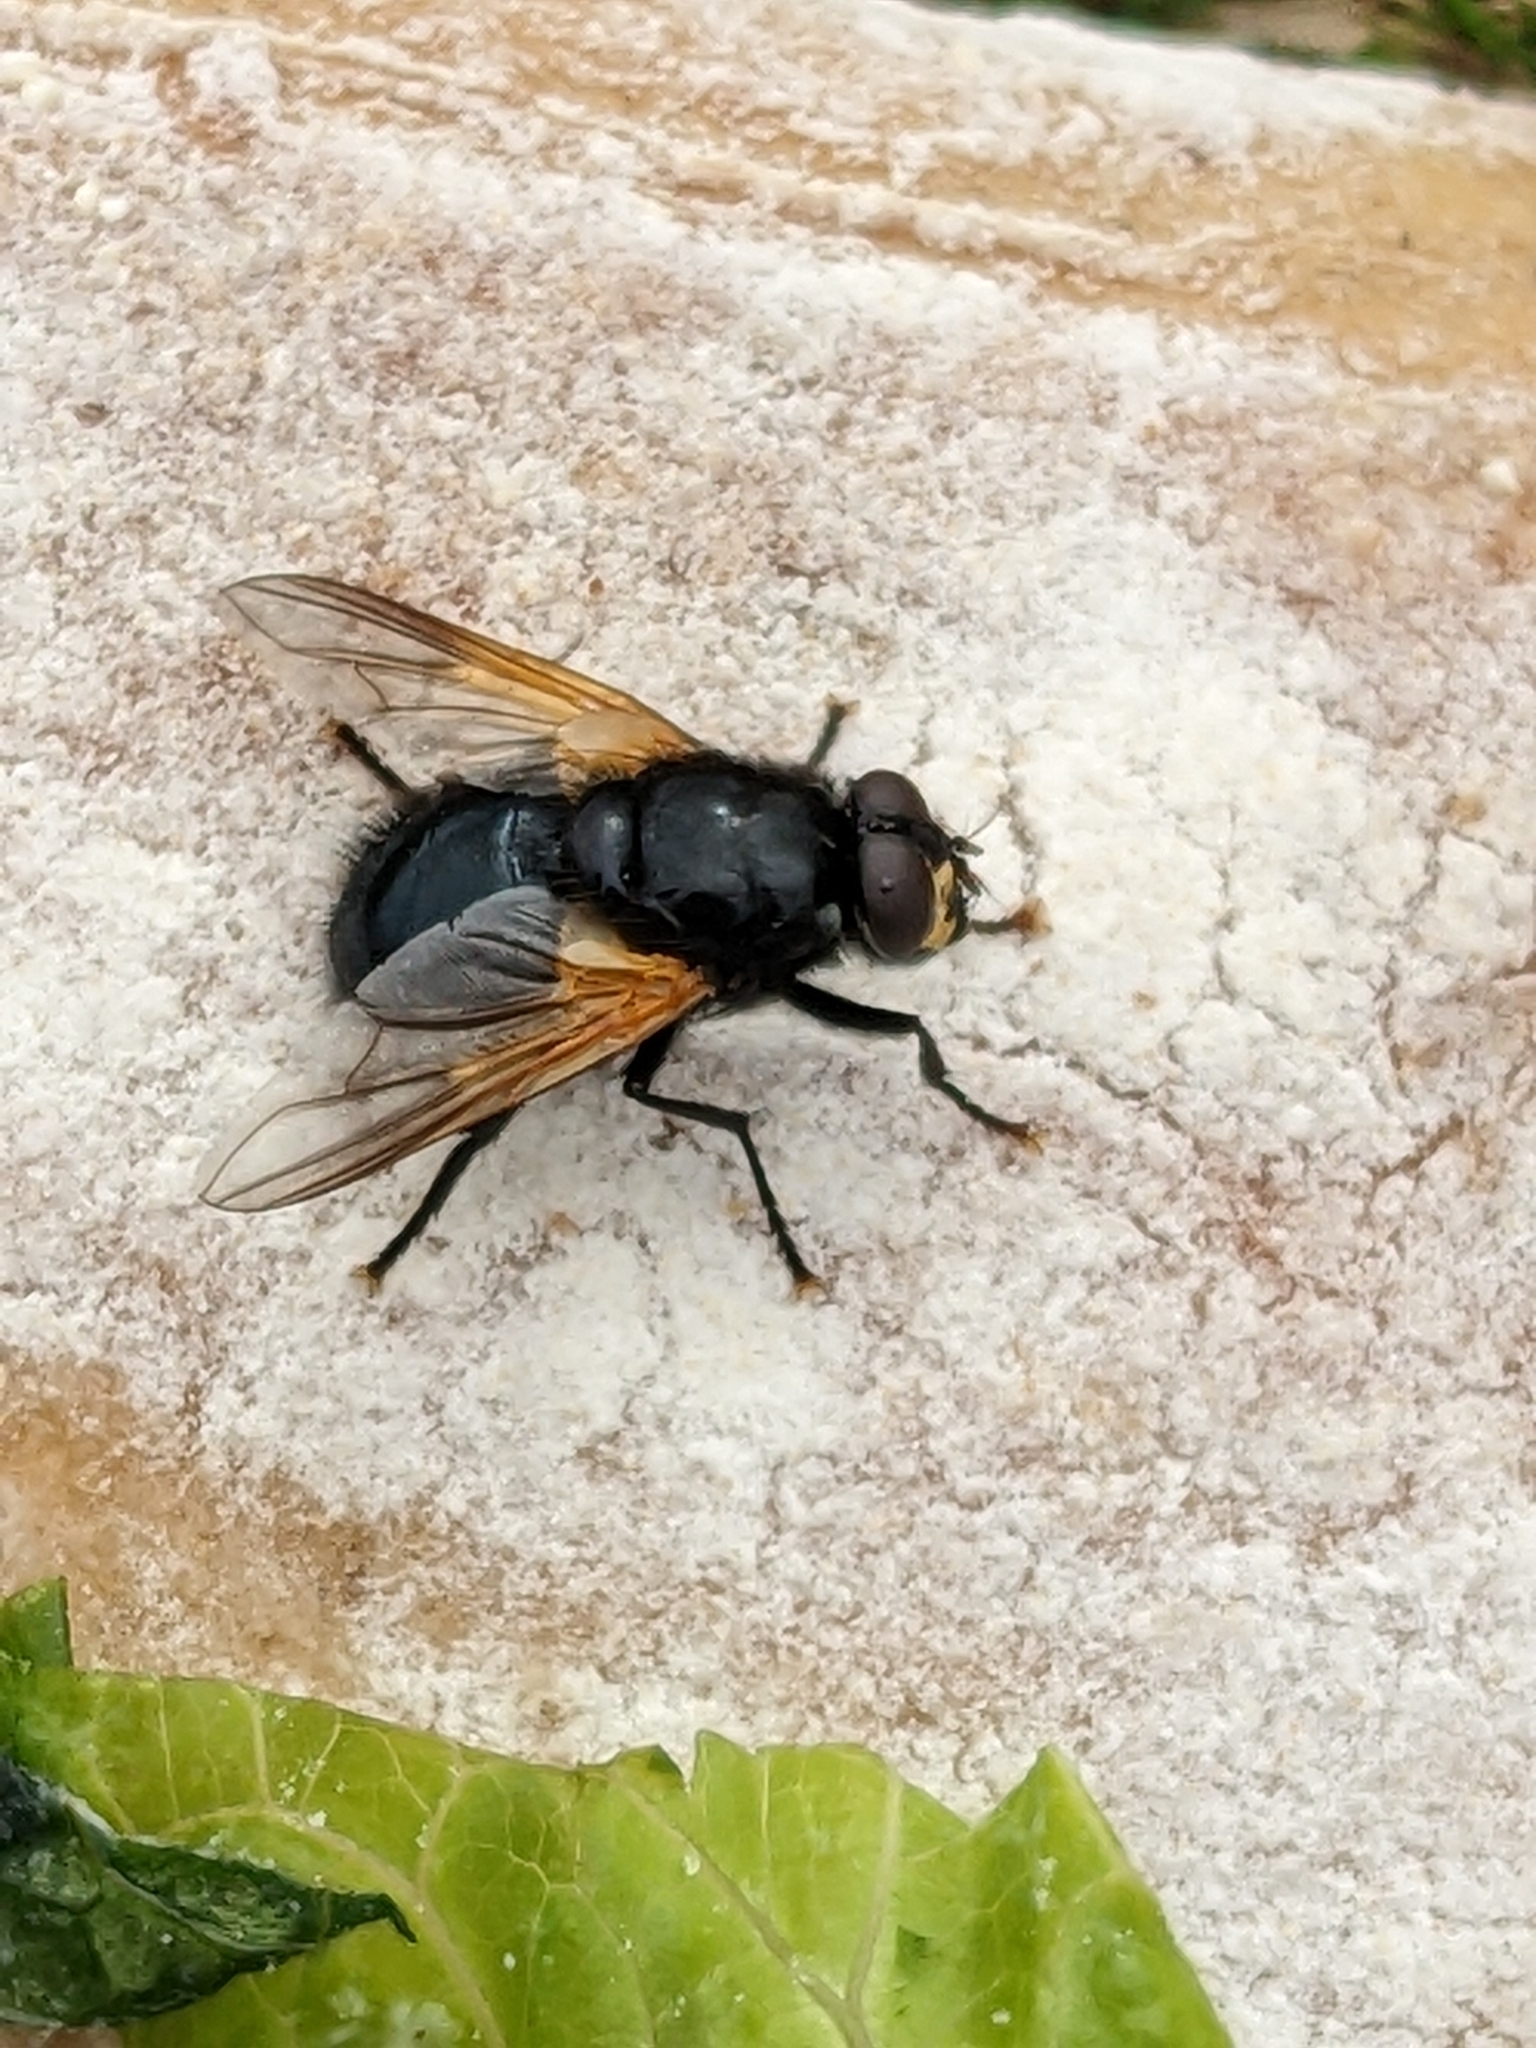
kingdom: Animalia
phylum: Arthropoda
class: Insecta
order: Diptera
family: Muscidae
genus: Mesembrina
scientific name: Mesembrina meridiana
